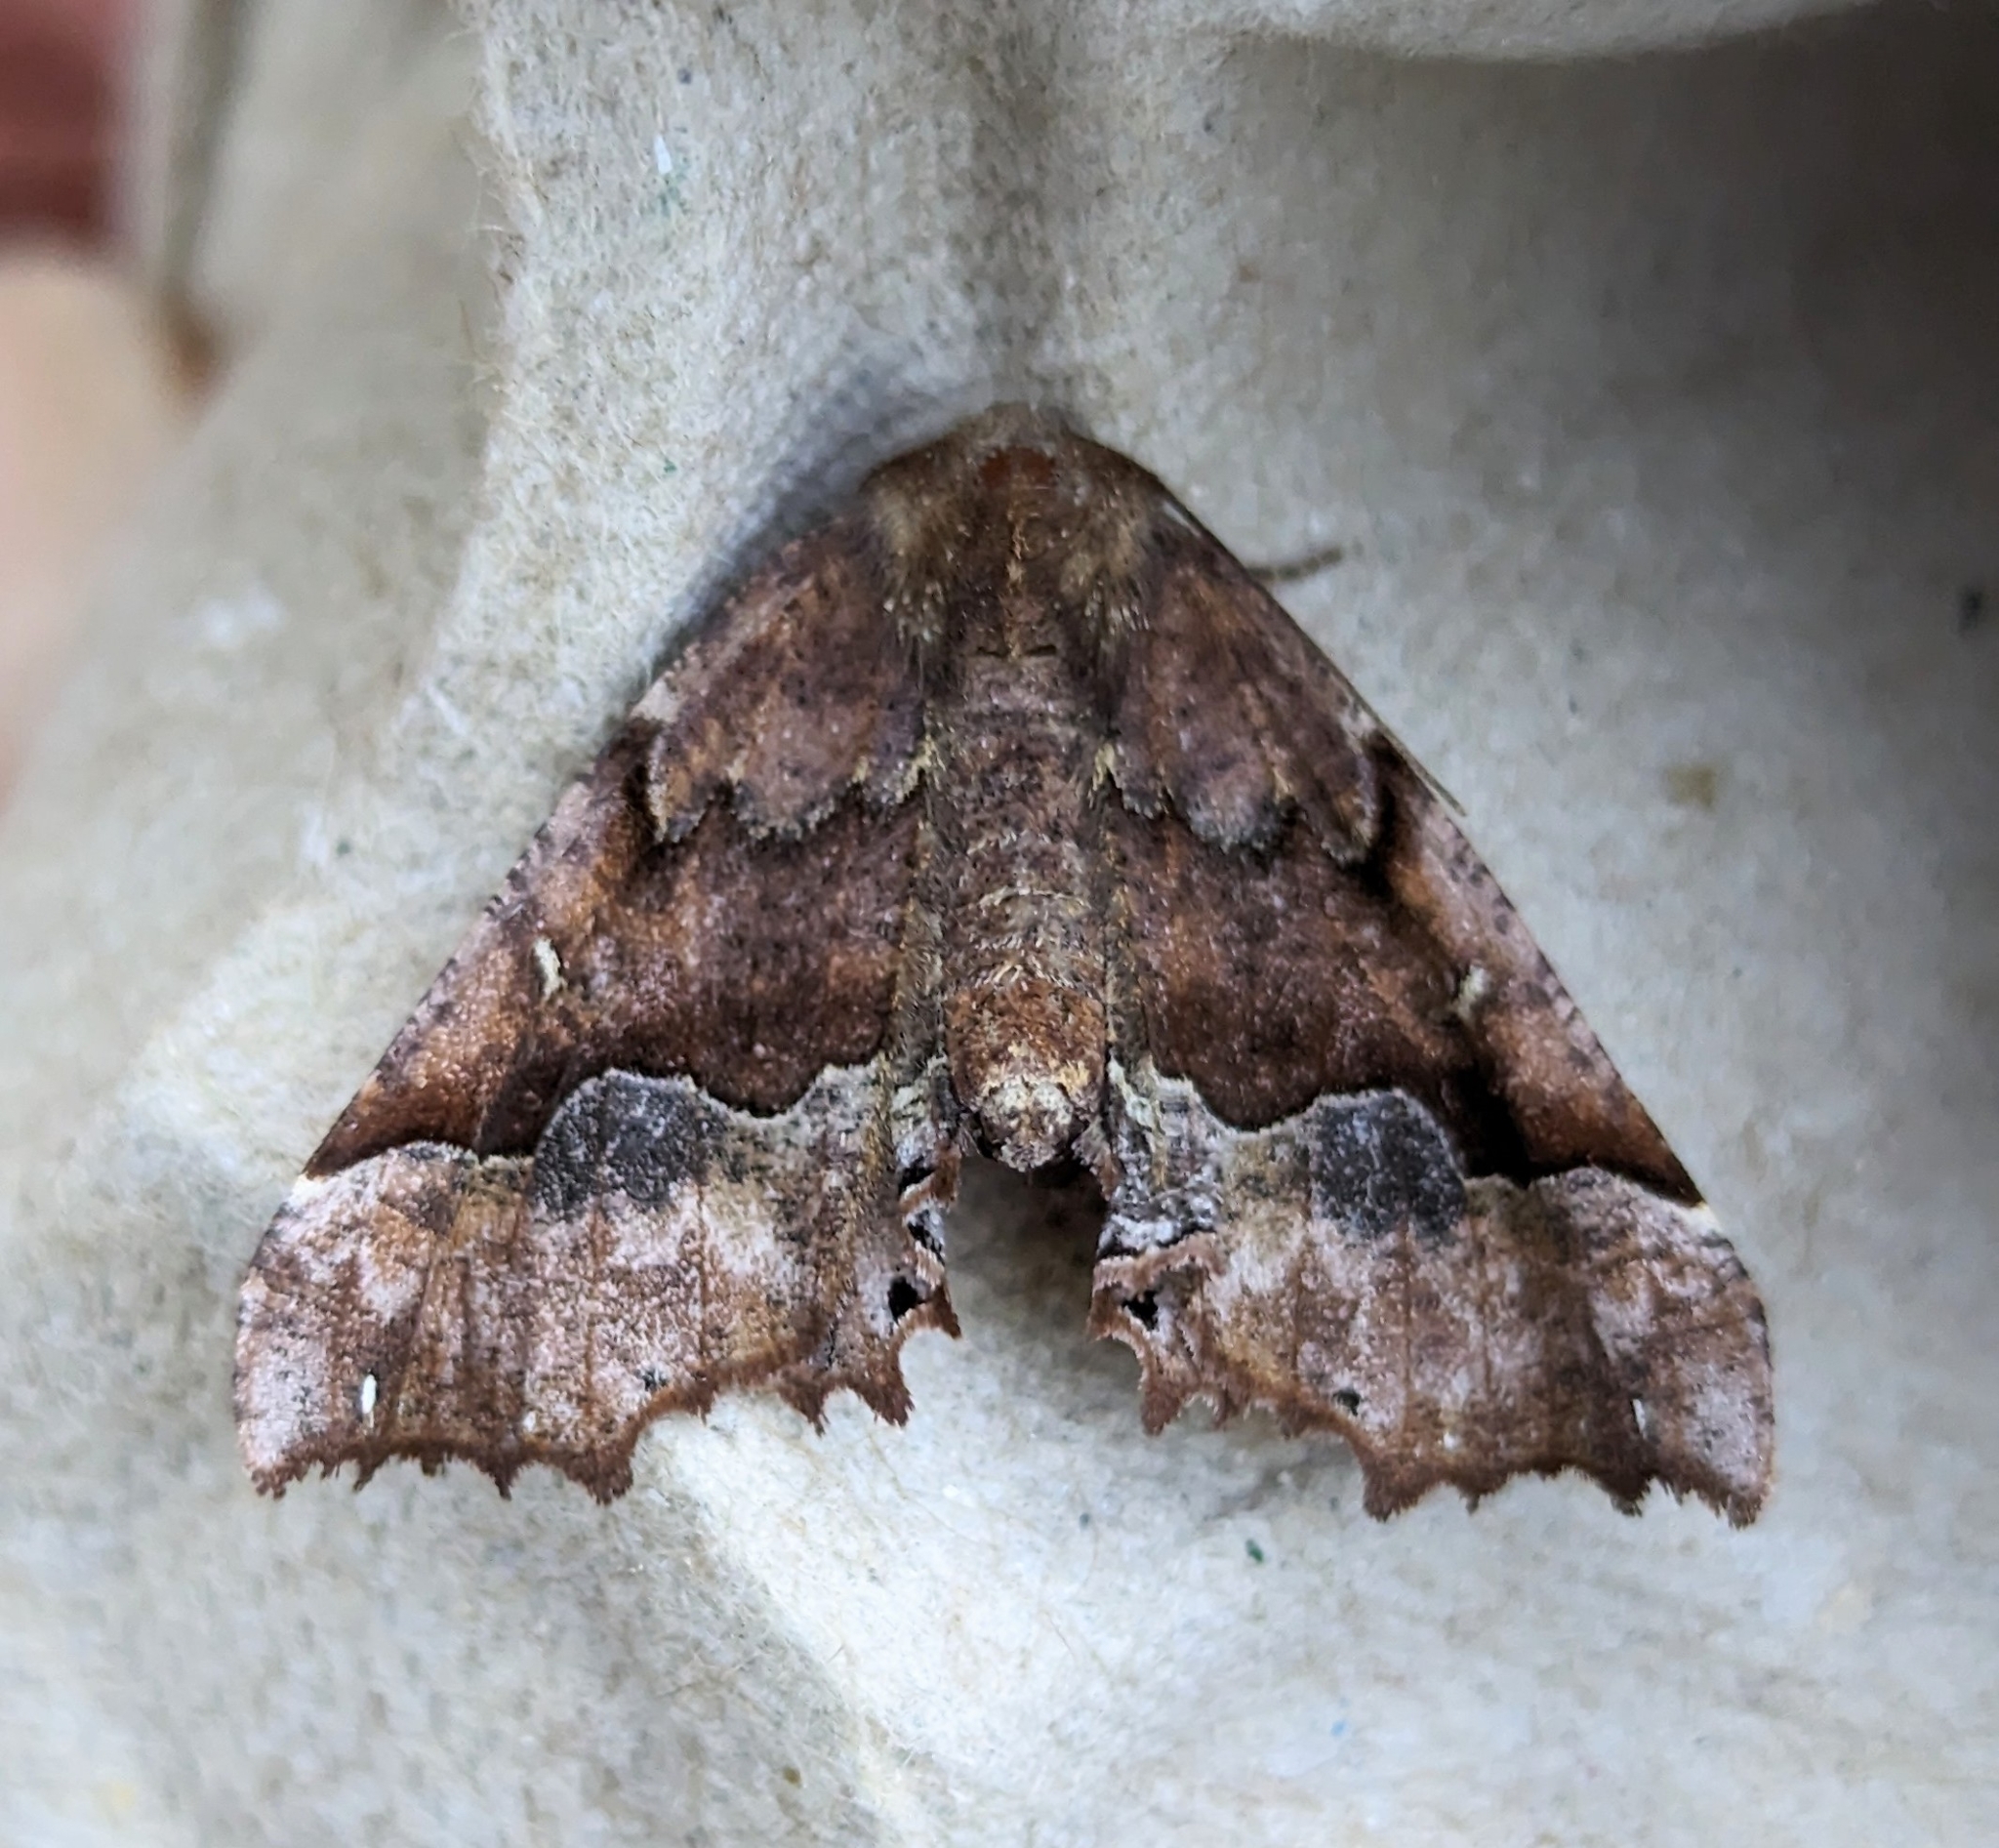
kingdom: Animalia
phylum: Arthropoda
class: Insecta
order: Lepidoptera
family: Geometridae
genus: Pero
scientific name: Pero morrisonaria
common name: Morrison's pero
